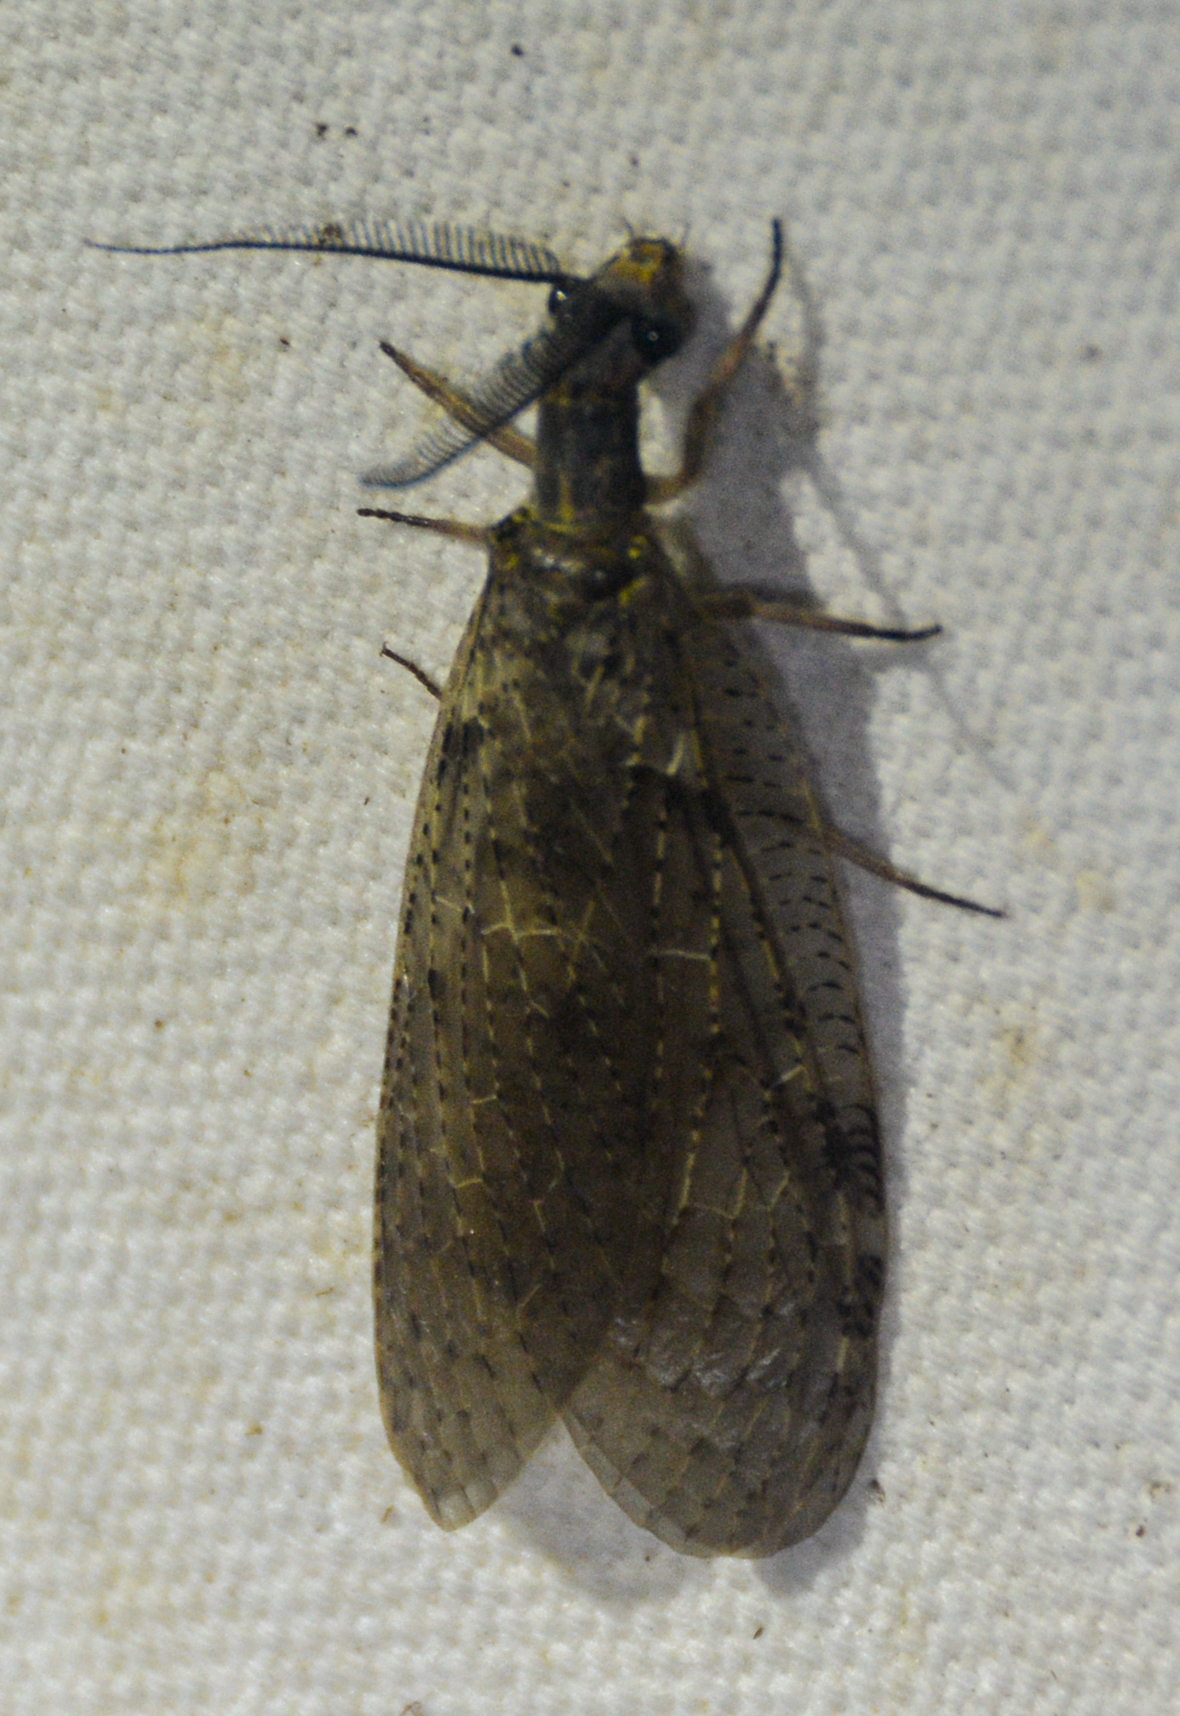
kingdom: Animalia
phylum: Arthropoda
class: Insecta
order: Megaloptera
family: Corydalidae
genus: Chauliodes
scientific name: Chauliodes pectinicornis
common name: Summer fishfly
